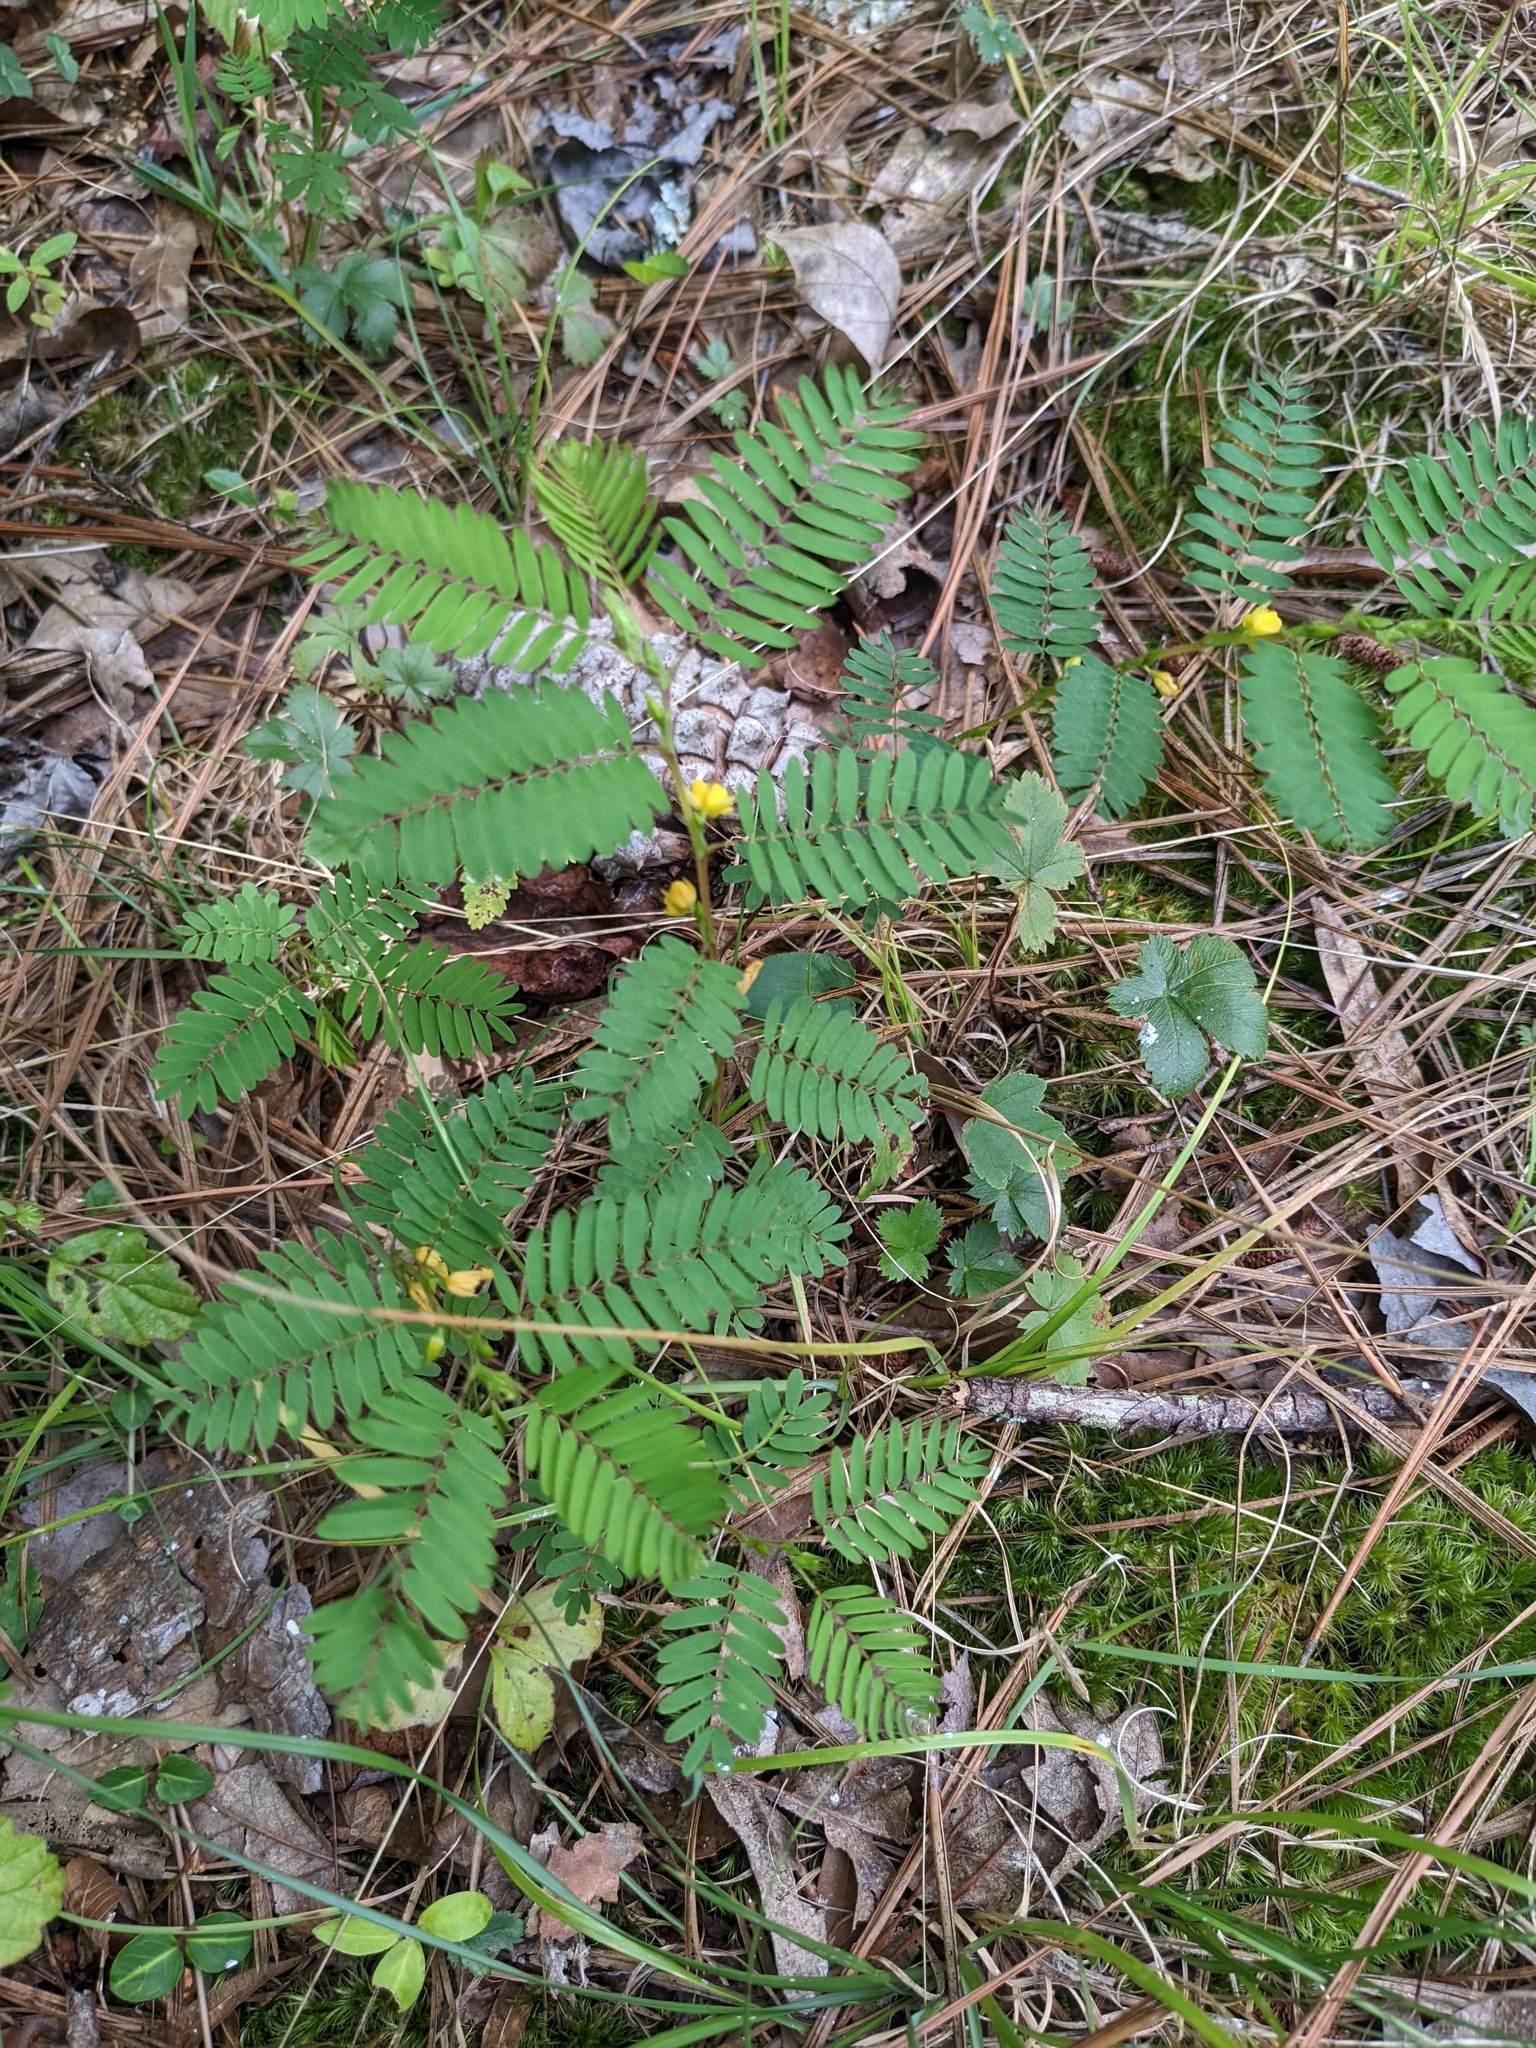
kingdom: Plantae
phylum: Tracheophyta
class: Magnoliopsida
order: Fabales
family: Fabaceae
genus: Chamaecrista
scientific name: Chamaecrista nictitans
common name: Sensitive cassia
